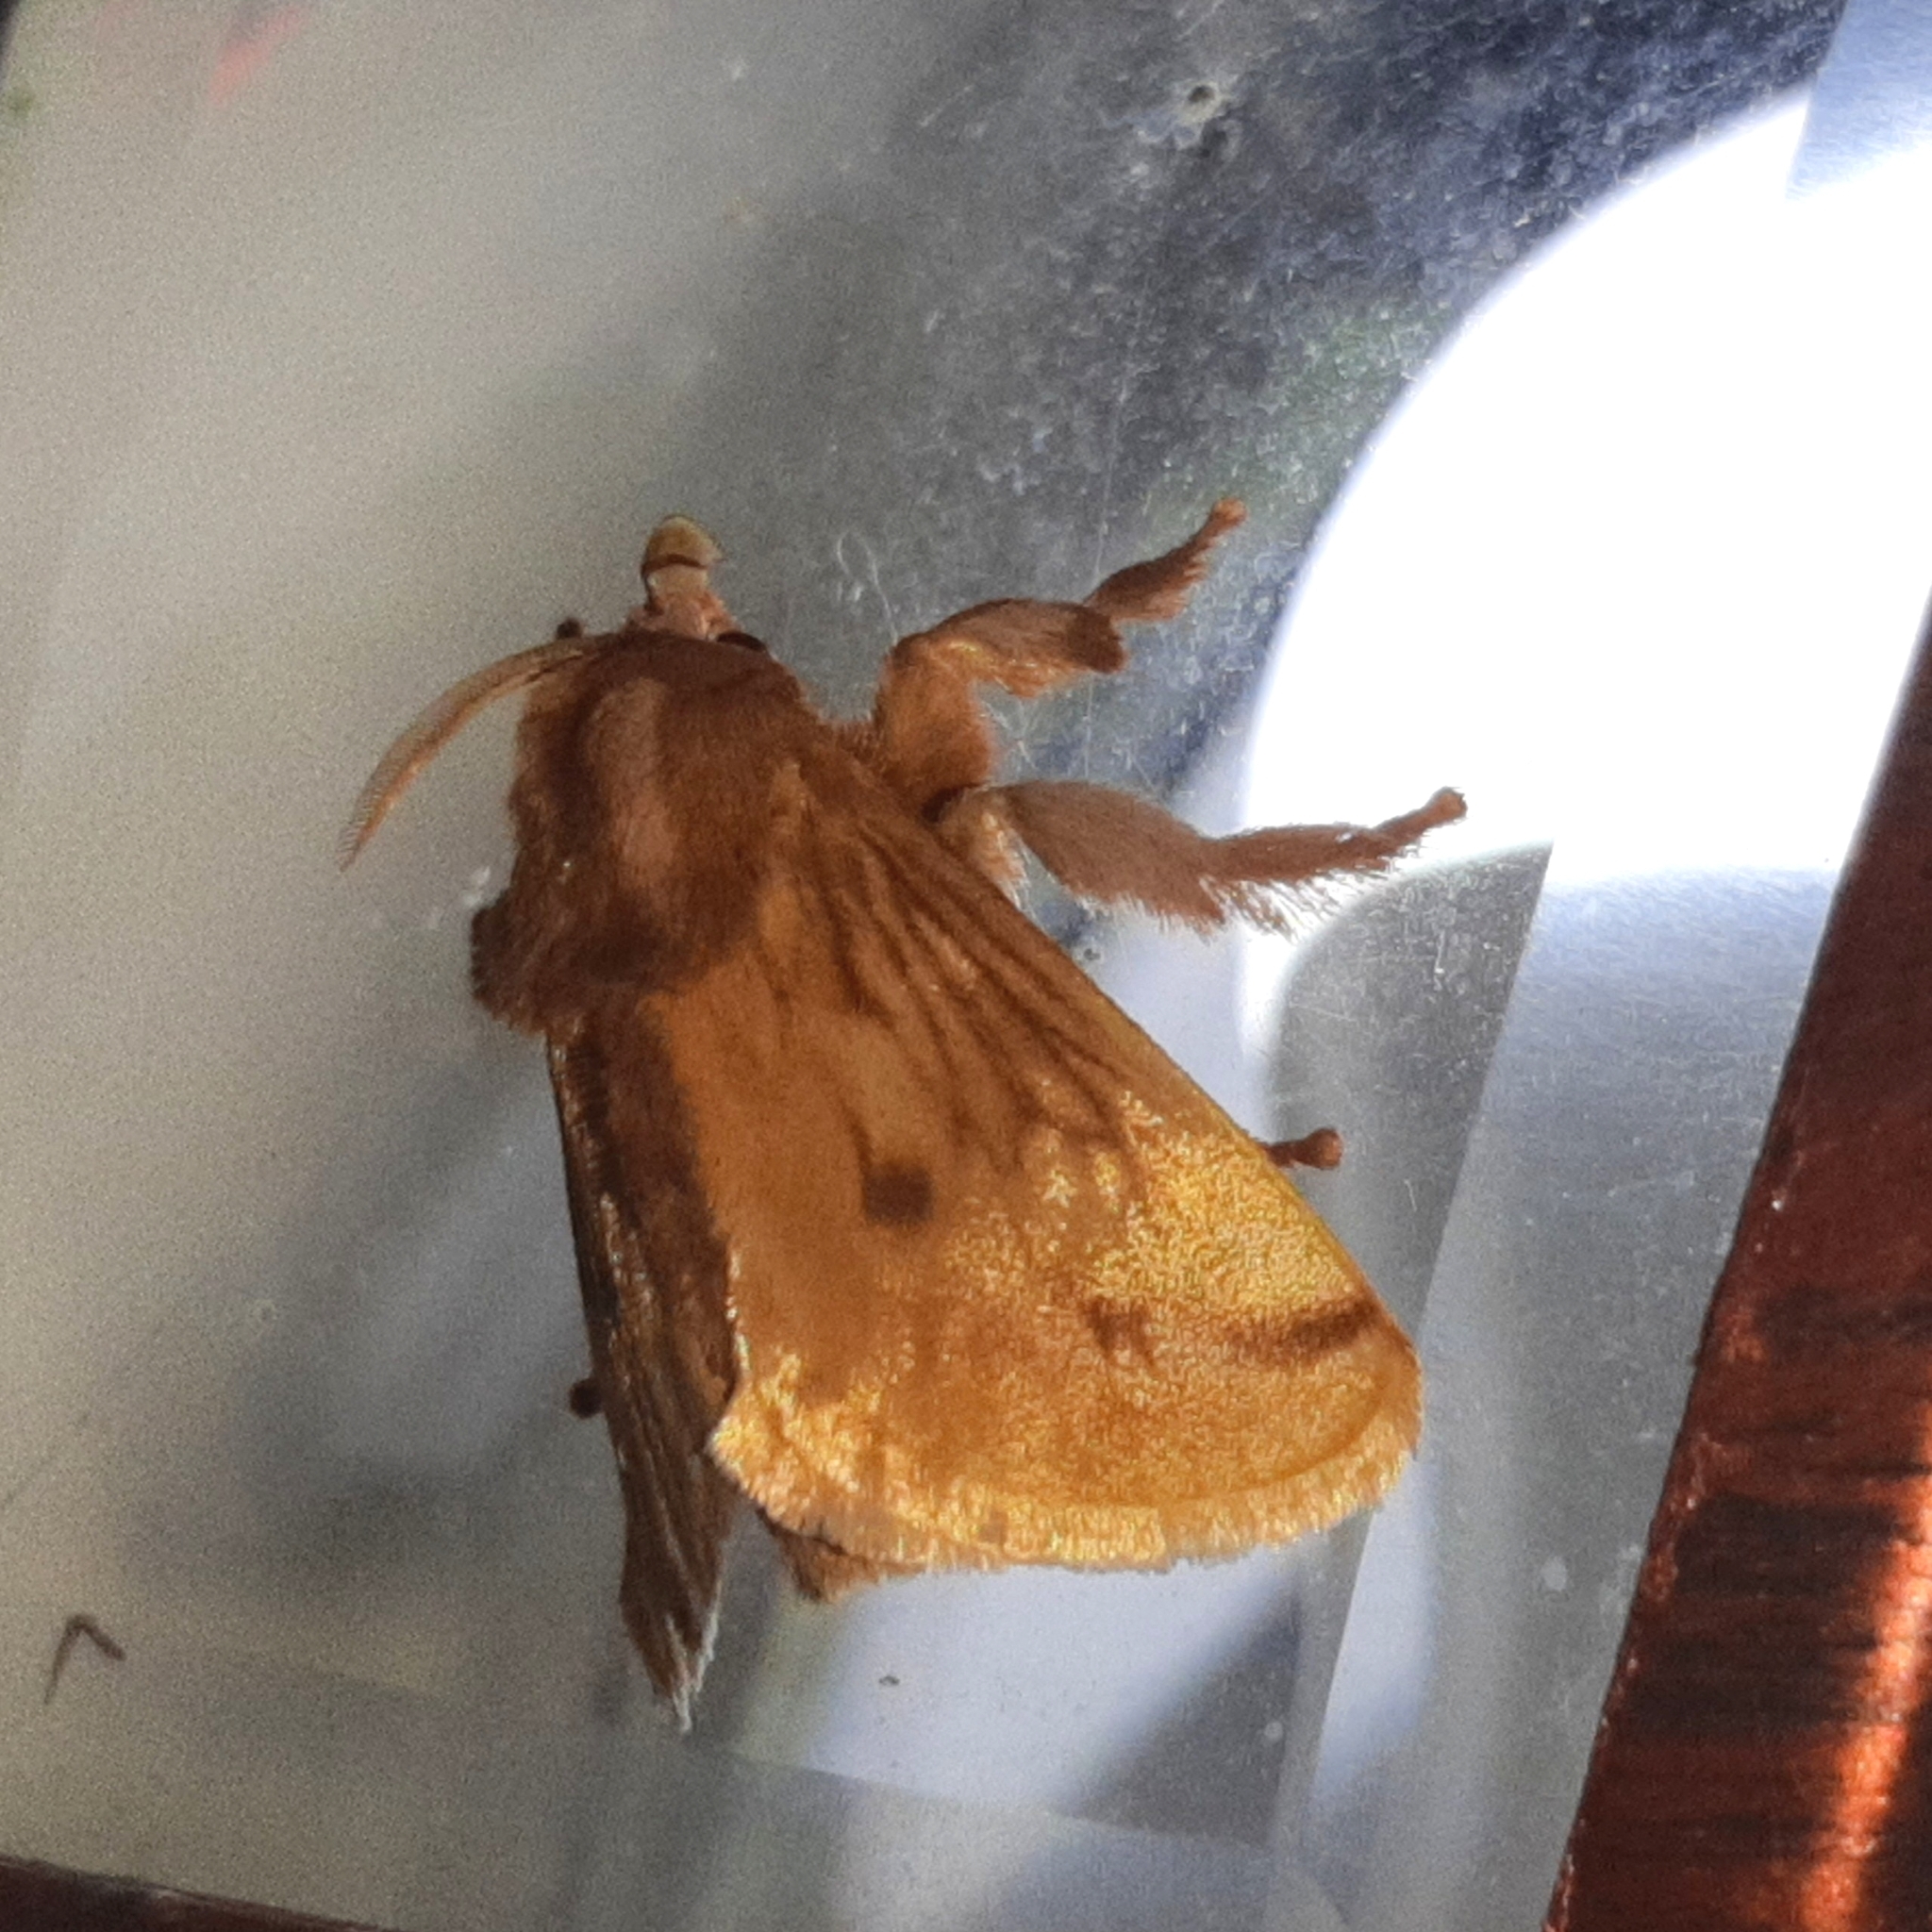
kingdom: Animalia
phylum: Arthropoda
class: Insecta
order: Lepidoptera
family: Limacodidae
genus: Perola
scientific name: Perola sericea
